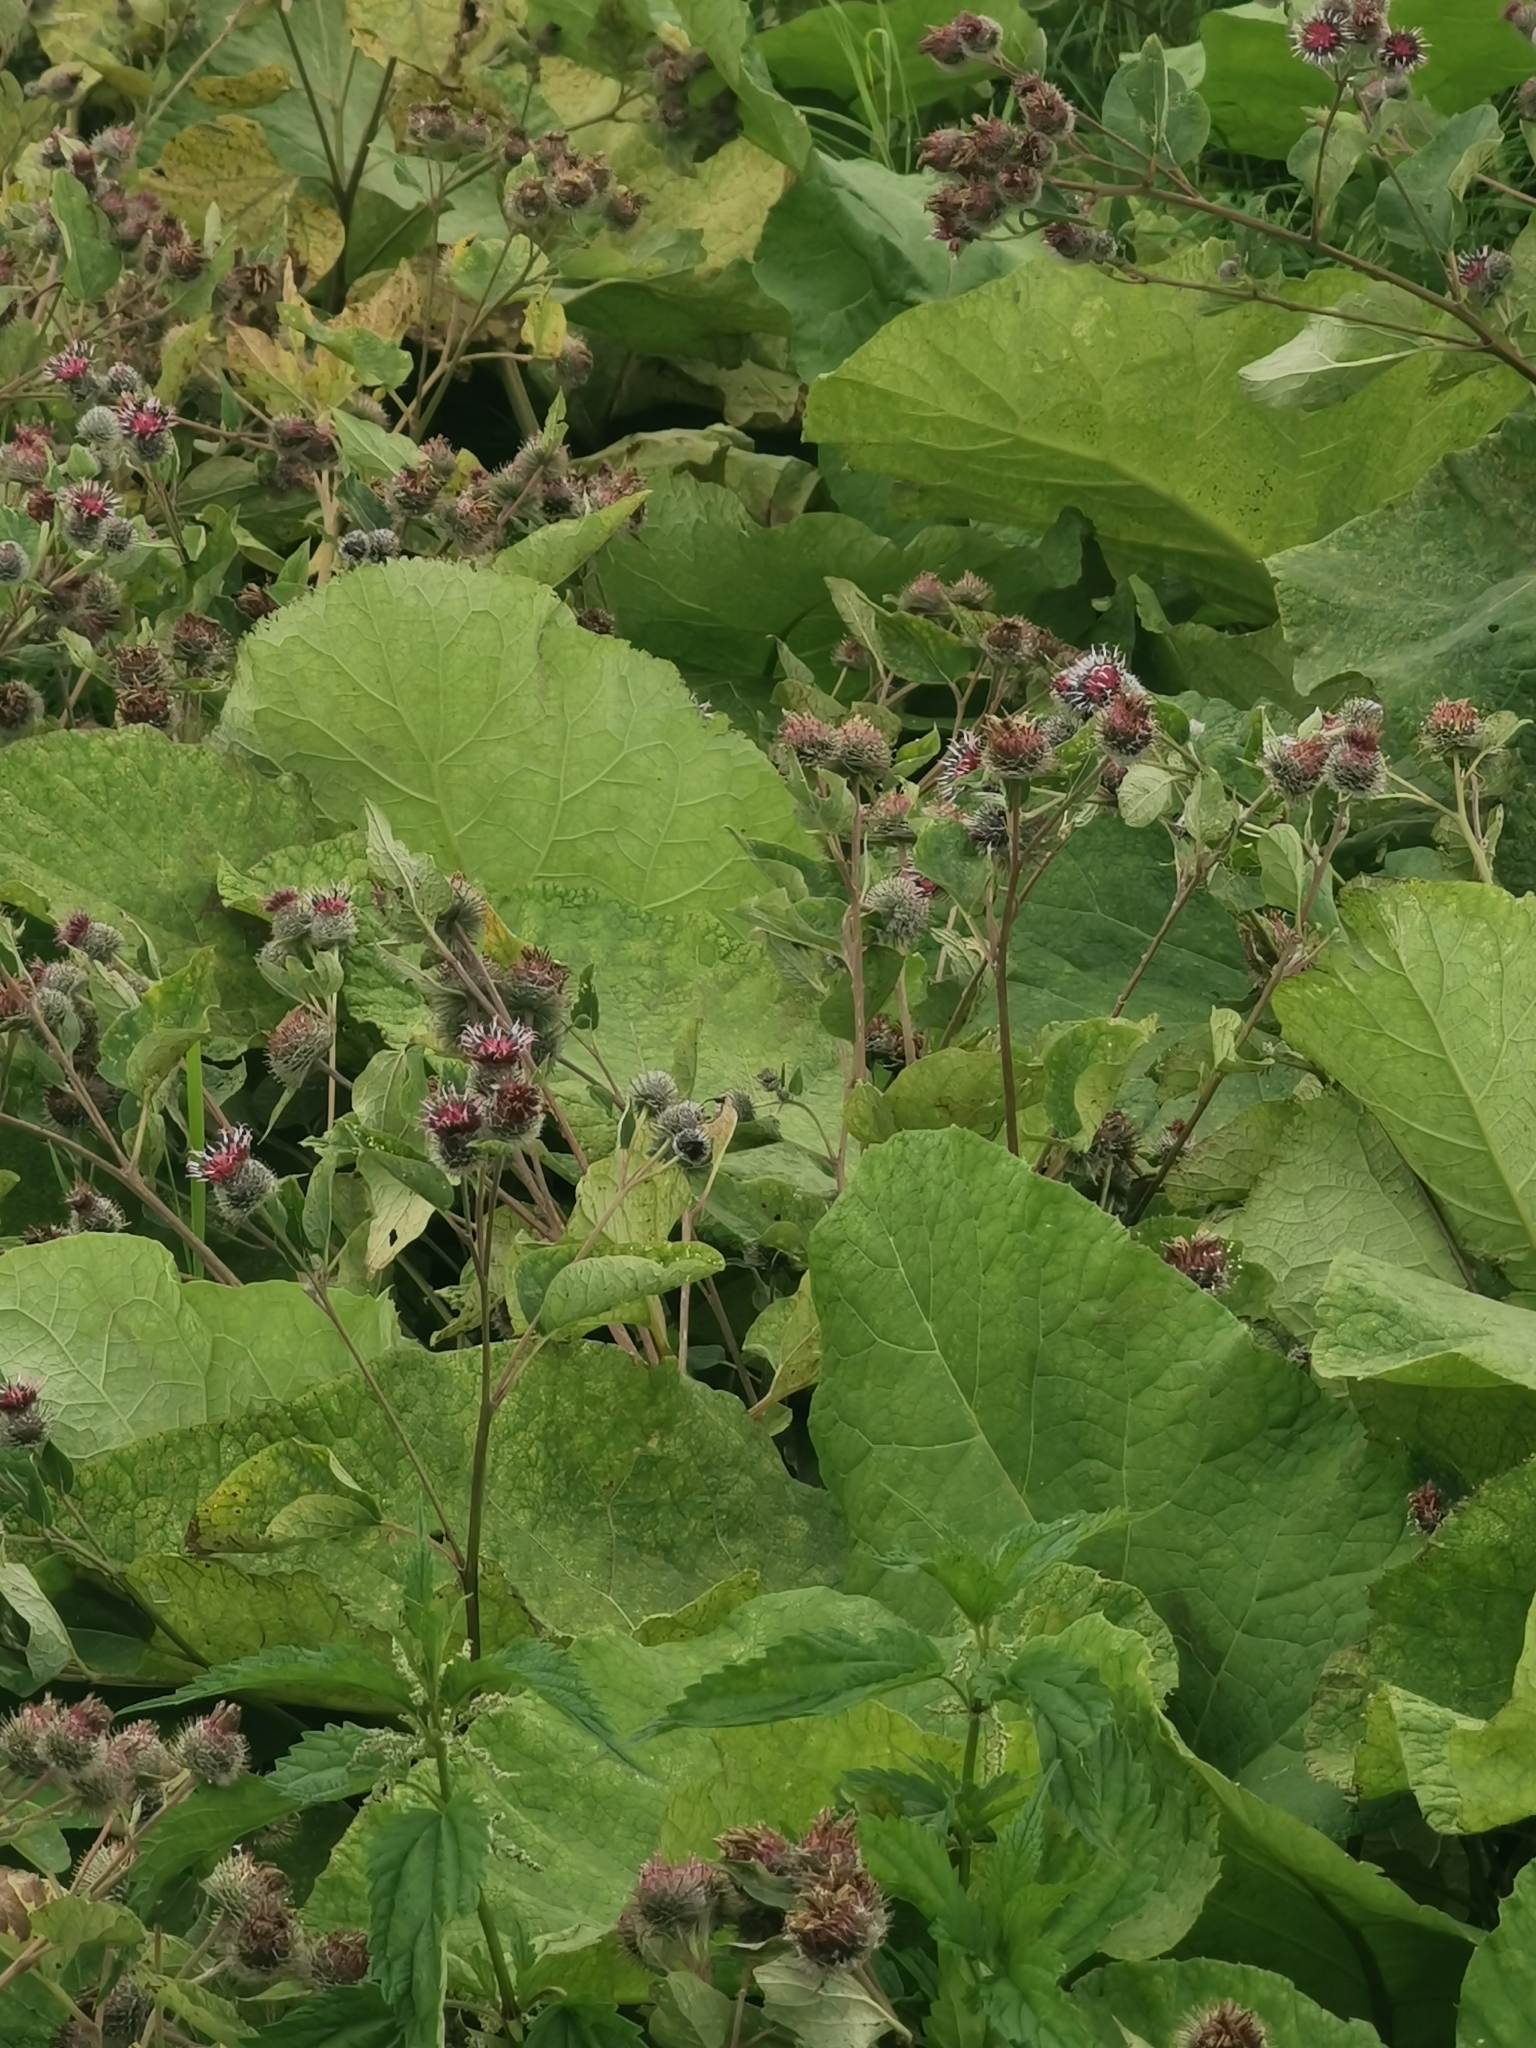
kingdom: Plantae
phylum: Tracheophyta
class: Magnoliopsida
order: Asterales
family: Asteraceae
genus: Arctium
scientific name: Arctium tomentosum
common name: Woolly burdock
